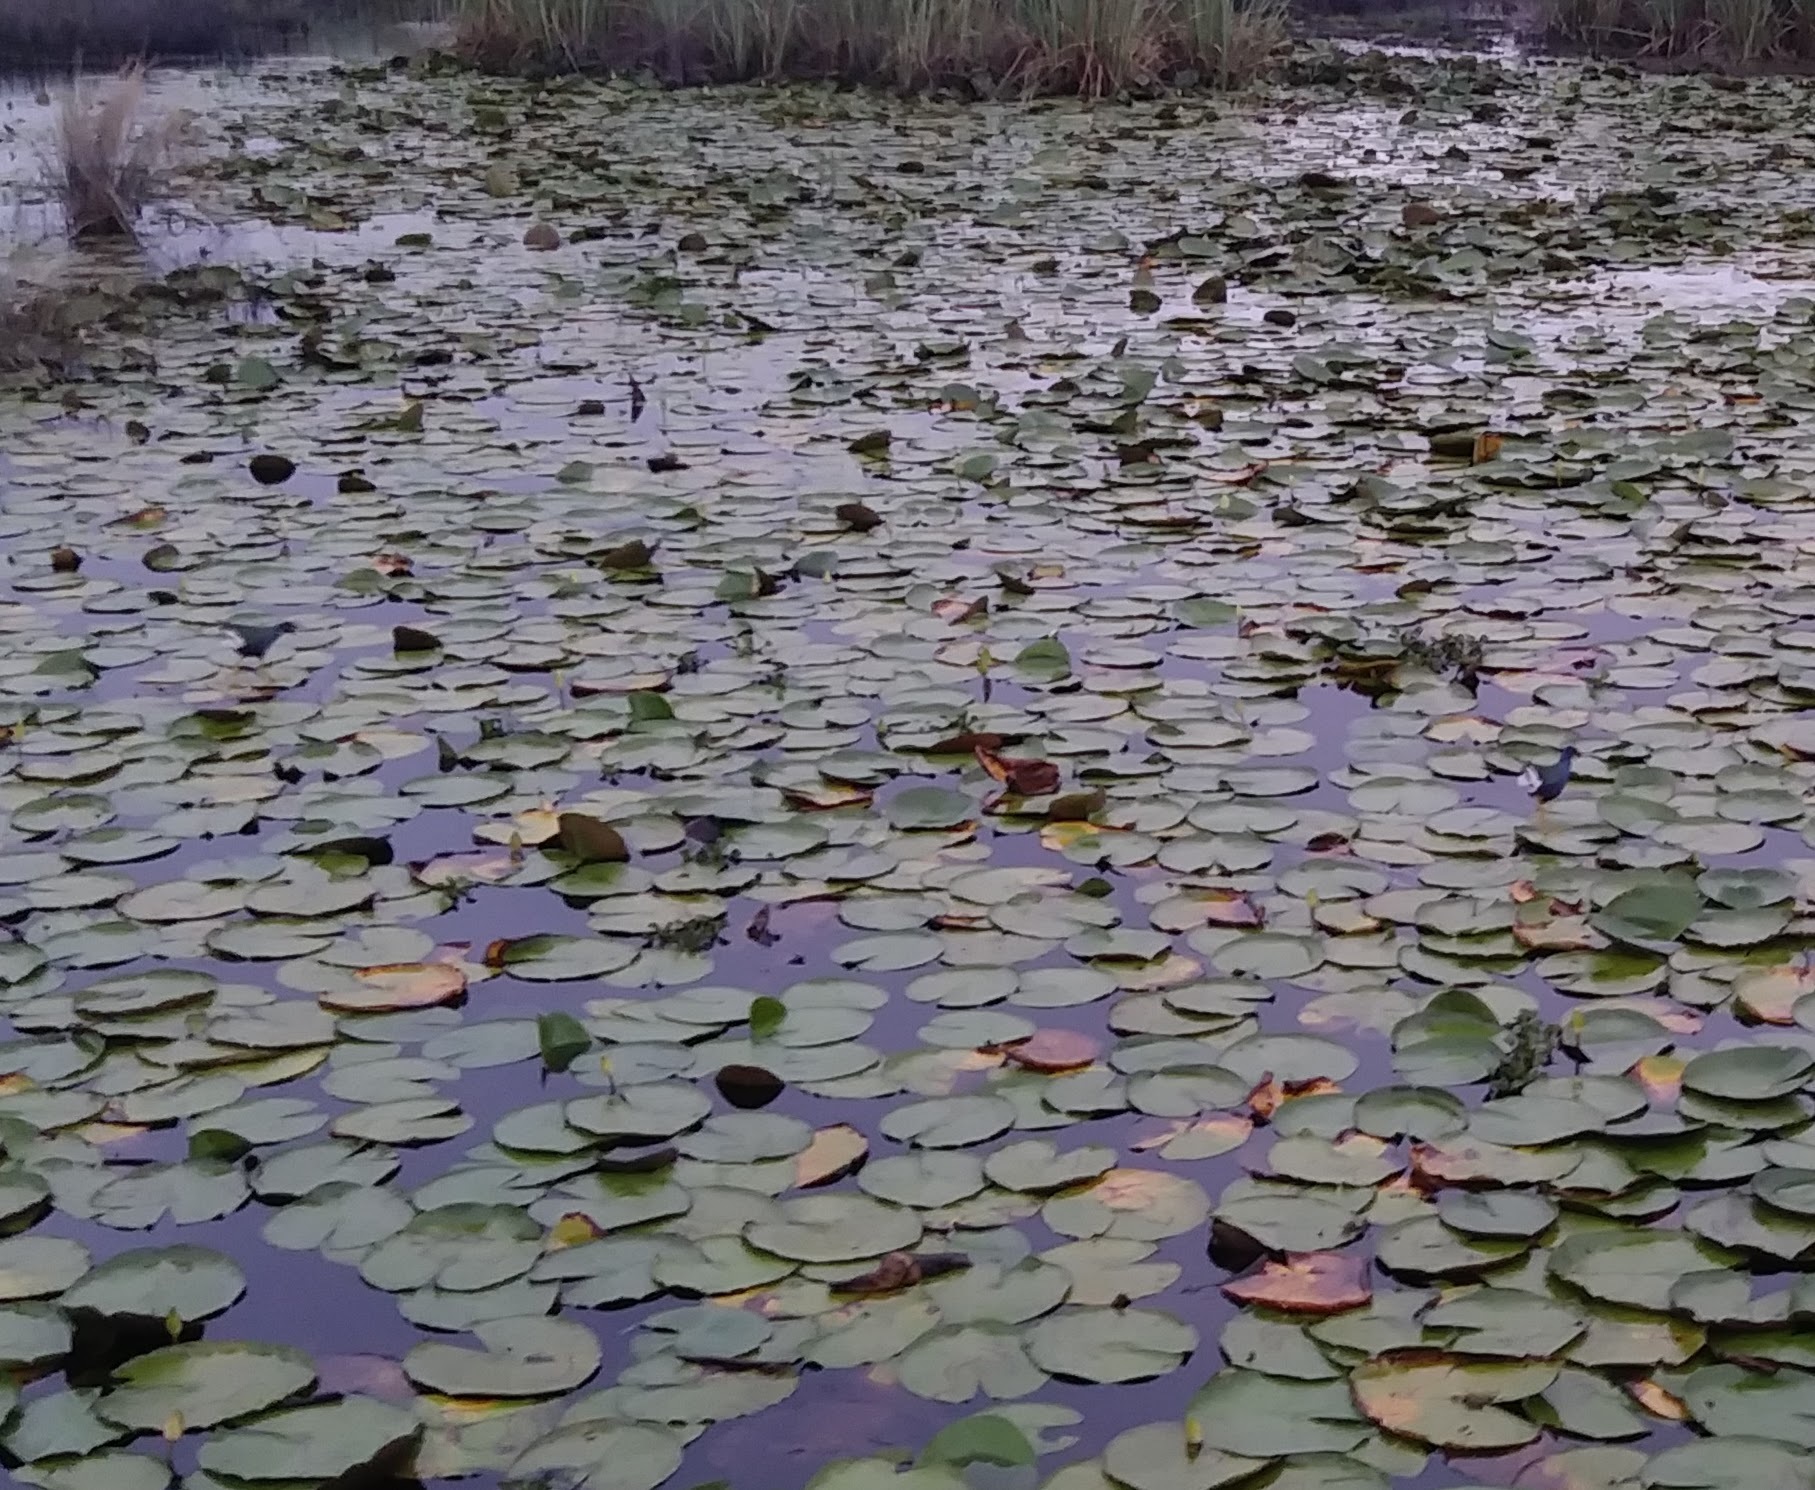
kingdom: Animalia
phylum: Chordata
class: Aves
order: Gruiformes
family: Rallidae
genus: Porphyrio
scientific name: Porphyrio martinica
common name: Purple gallinule
